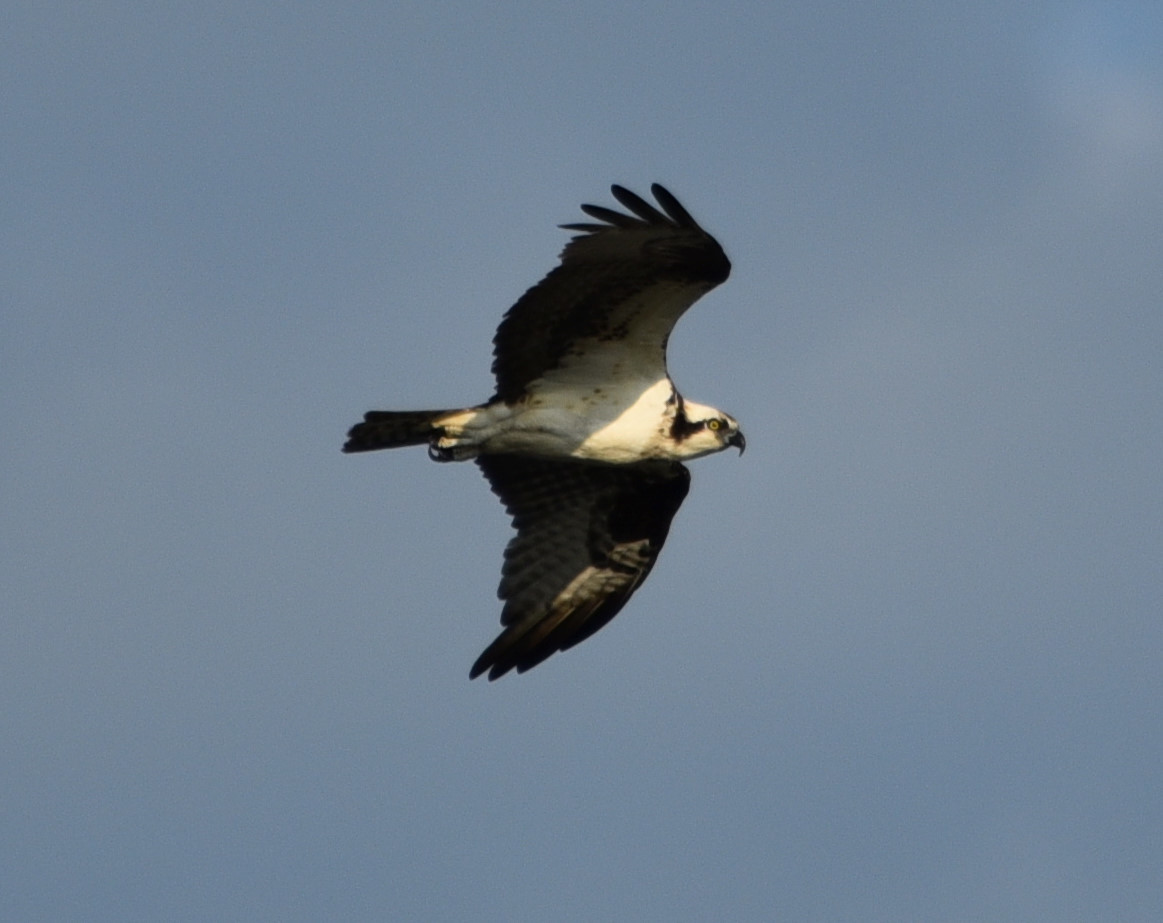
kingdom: Animalia
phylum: Chordata
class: Aves
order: Accipitriformes
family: Pandionidae
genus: Pandion
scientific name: Pandion haliaetus
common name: Osprey
